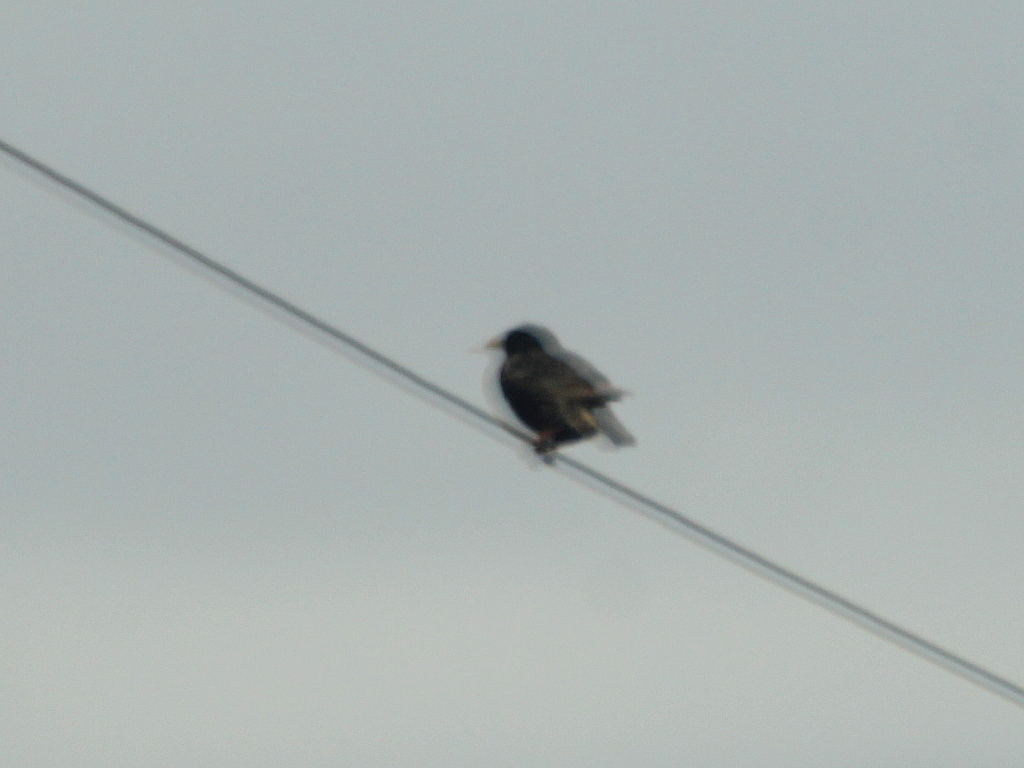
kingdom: Animalia
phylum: Chordata
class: Aves
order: Passeriformes
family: Sturnidae
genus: Sturnus
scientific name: Sturnus vulgaris
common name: Common starling
